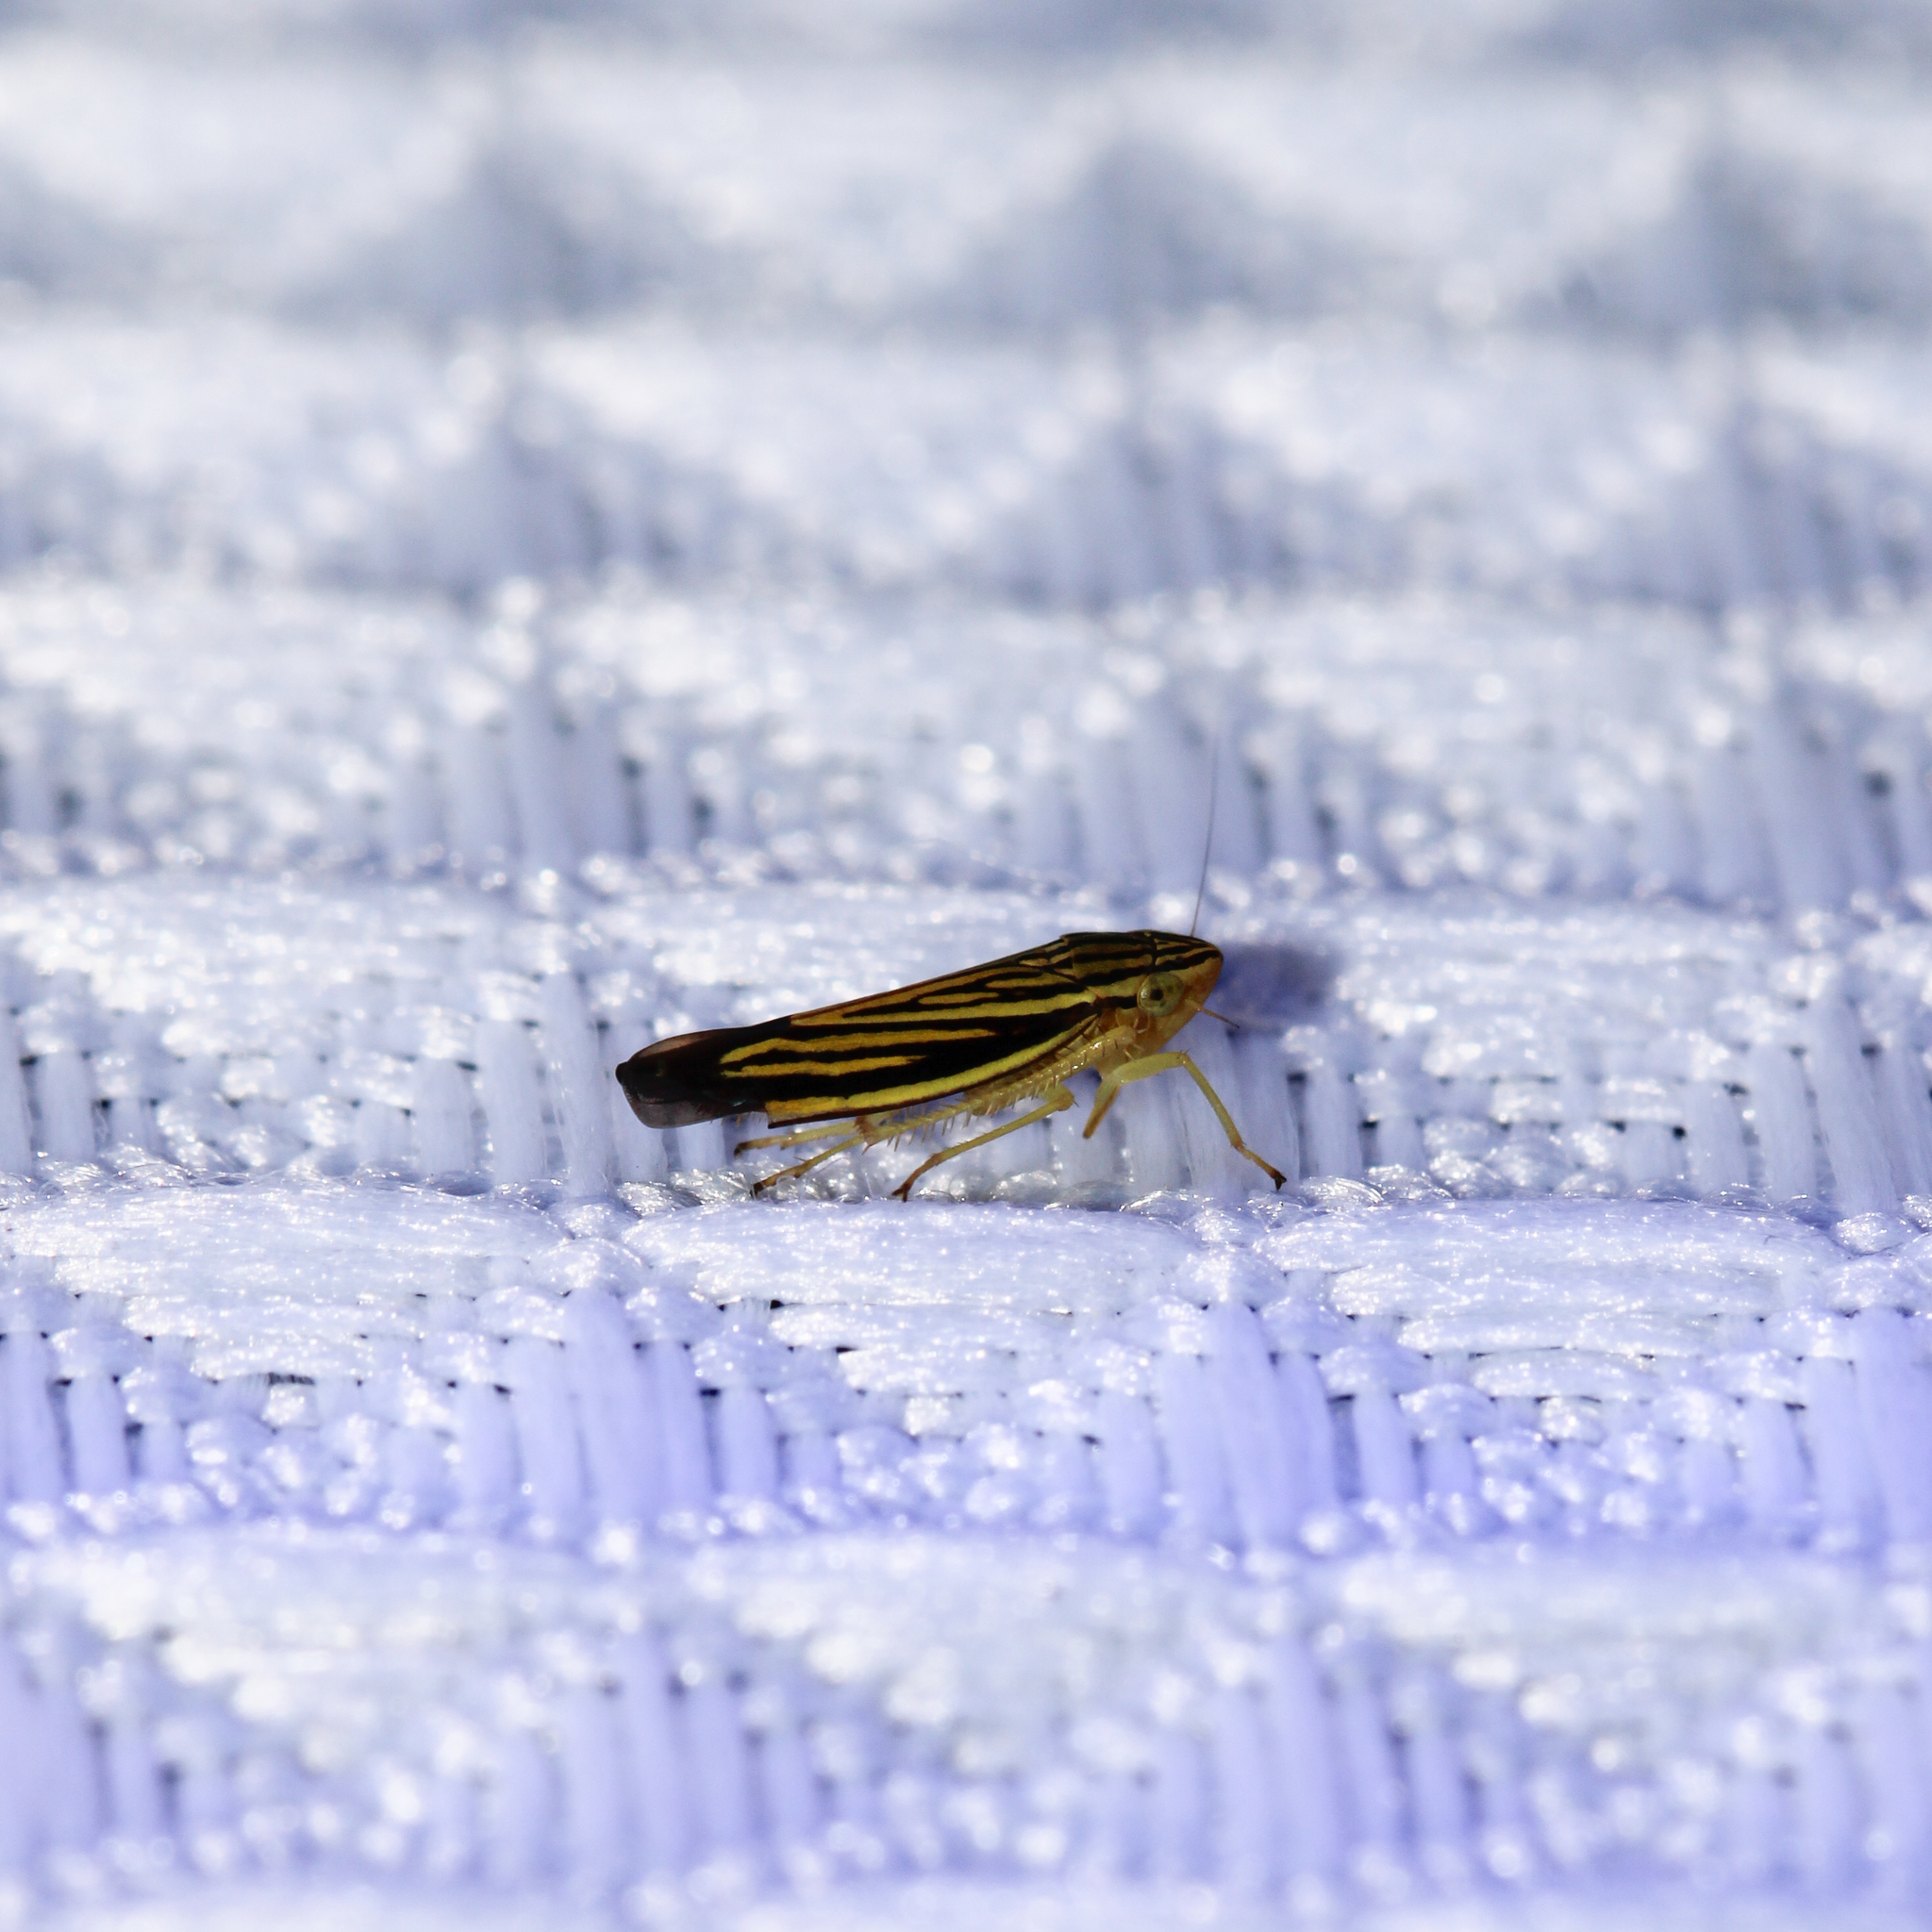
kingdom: Animalia
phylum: Arthropoda
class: Insecta
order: Hemiptera
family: Cicadellidae
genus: Sibovia
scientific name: Sibovia occatoria
